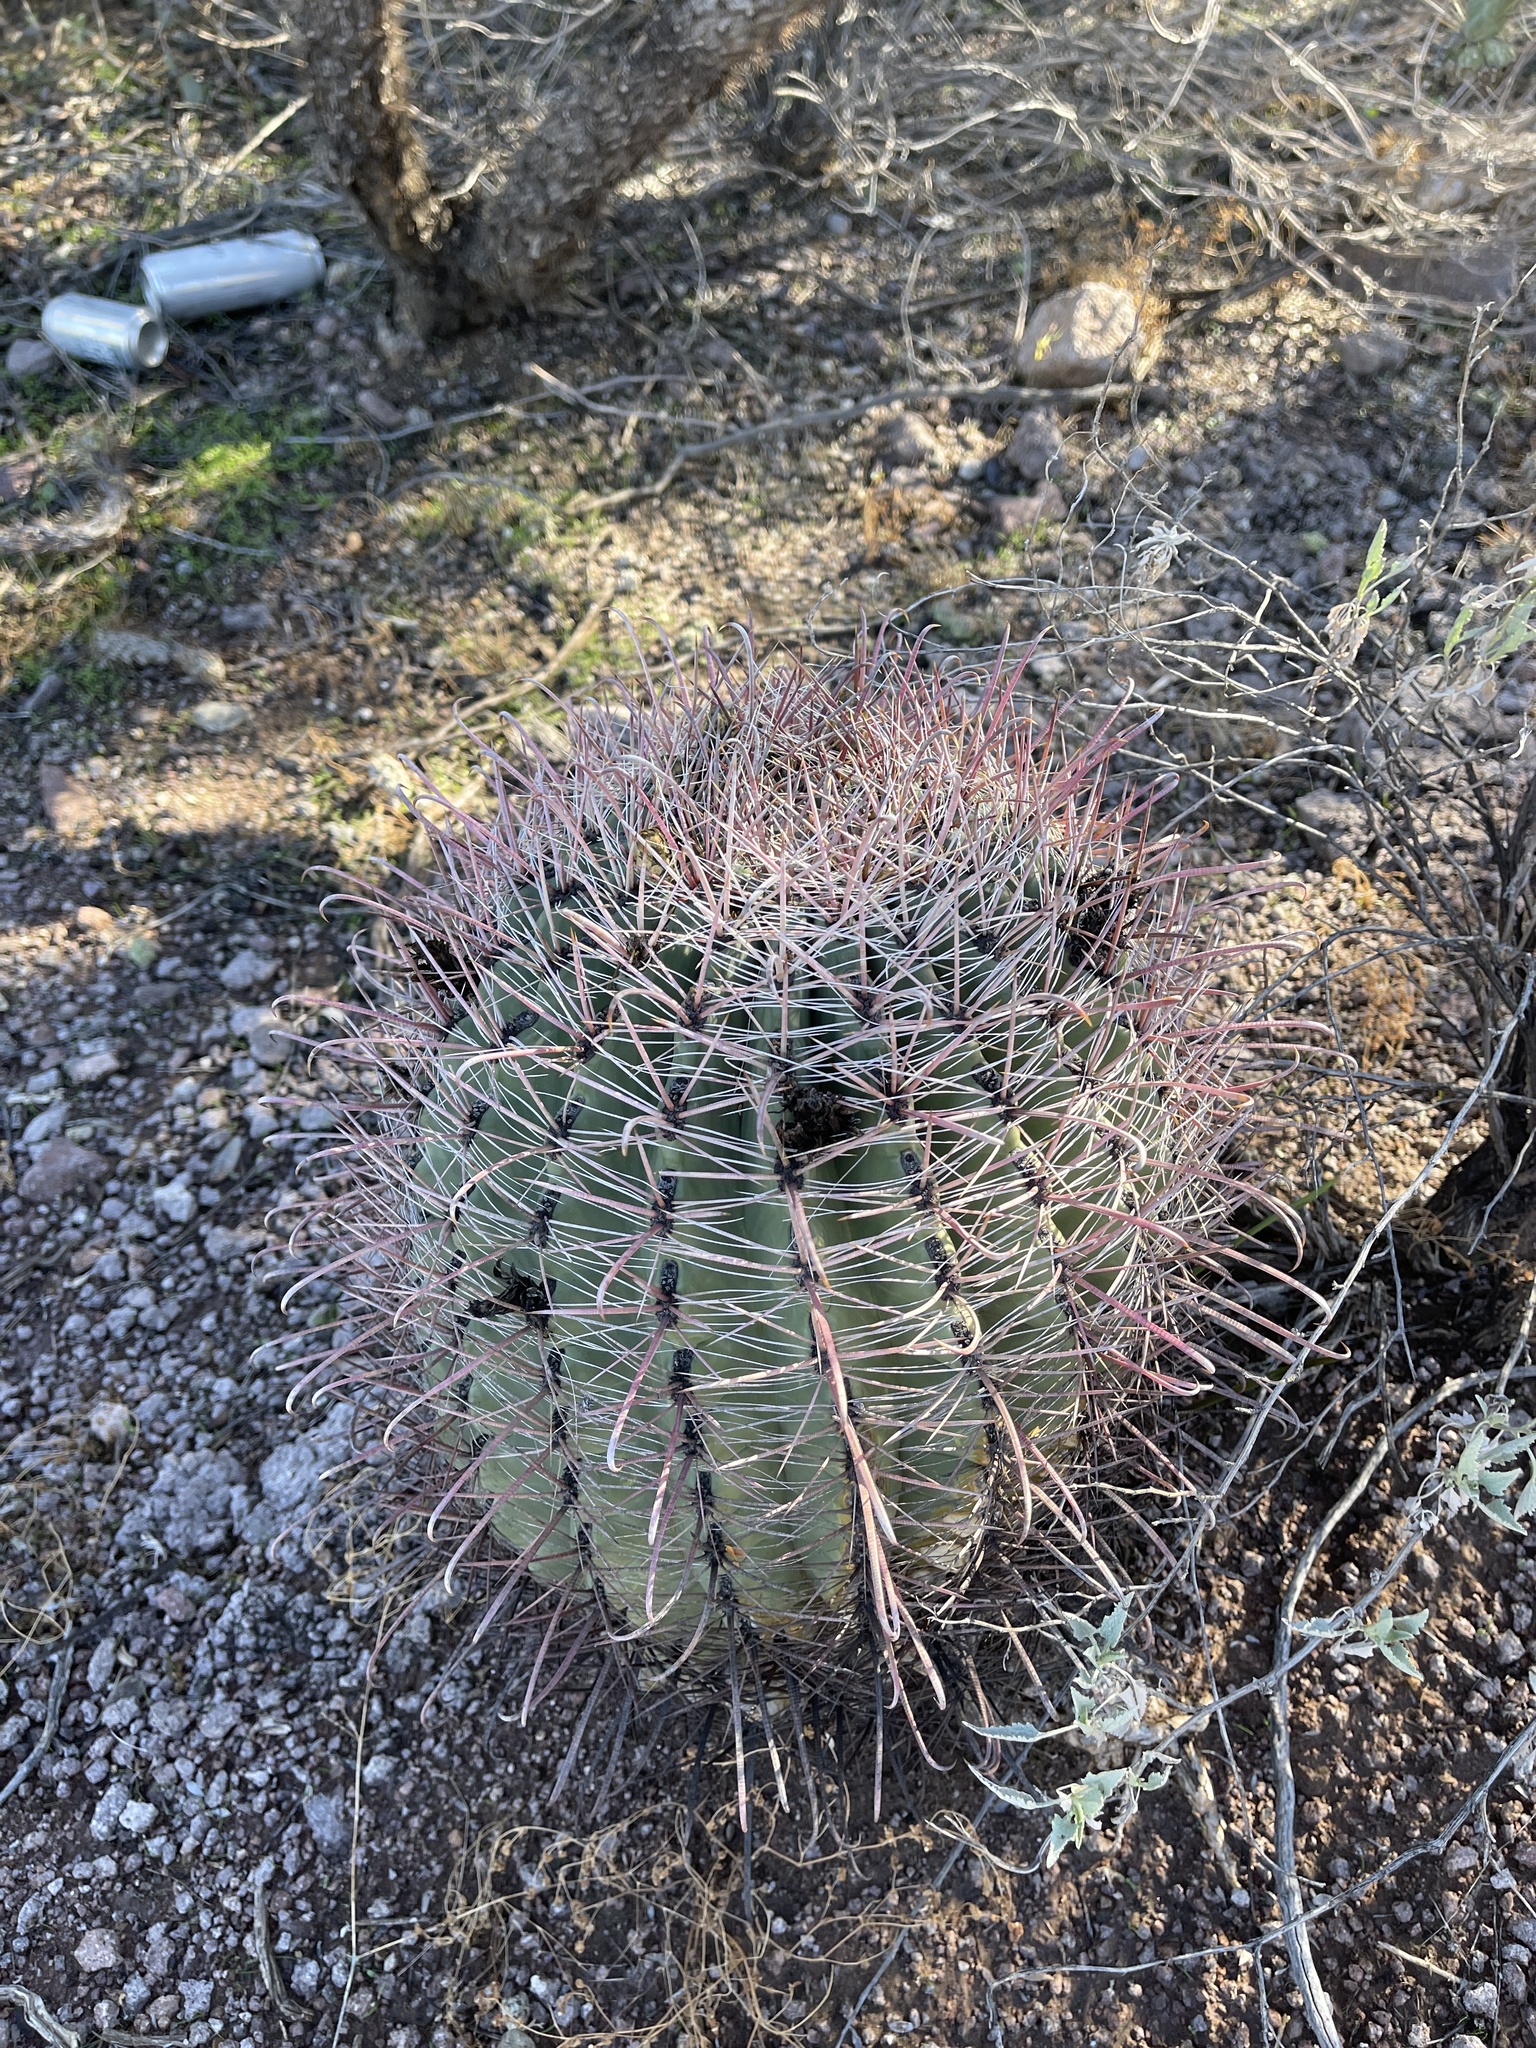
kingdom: Plantae
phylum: Tracheophyta
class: Magnoliopsida
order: Caryophyllales
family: Cactaceae
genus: Ferocactus
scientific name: Ferocactus wislizeni
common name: Candy barrel cactus
